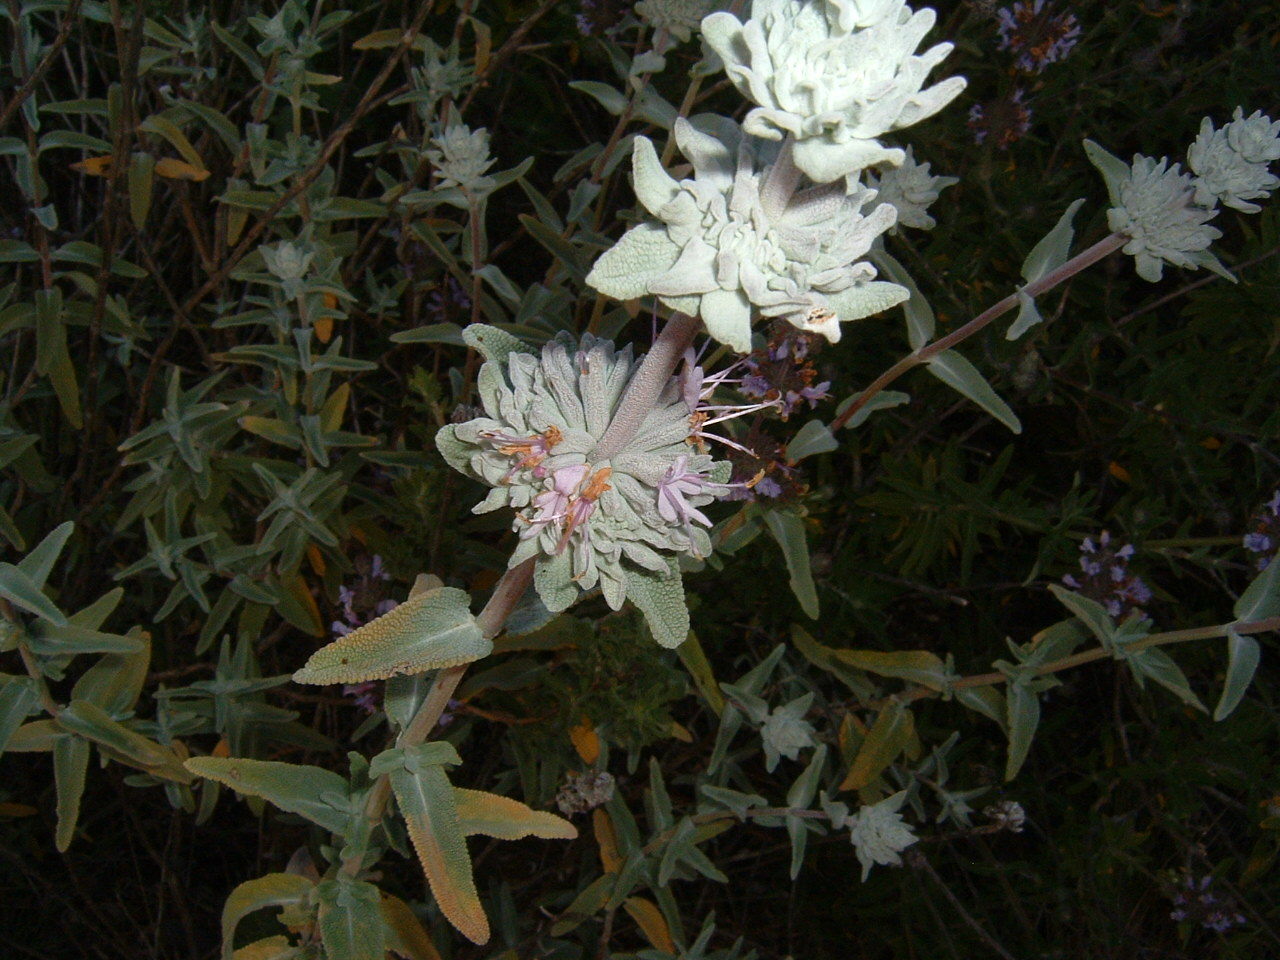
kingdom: Plantae
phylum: Tracheophyta
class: Magnoliopsida
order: Lamiales
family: Lamiaceae
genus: Salvia
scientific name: Salvia leucophylla
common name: Purple sage
